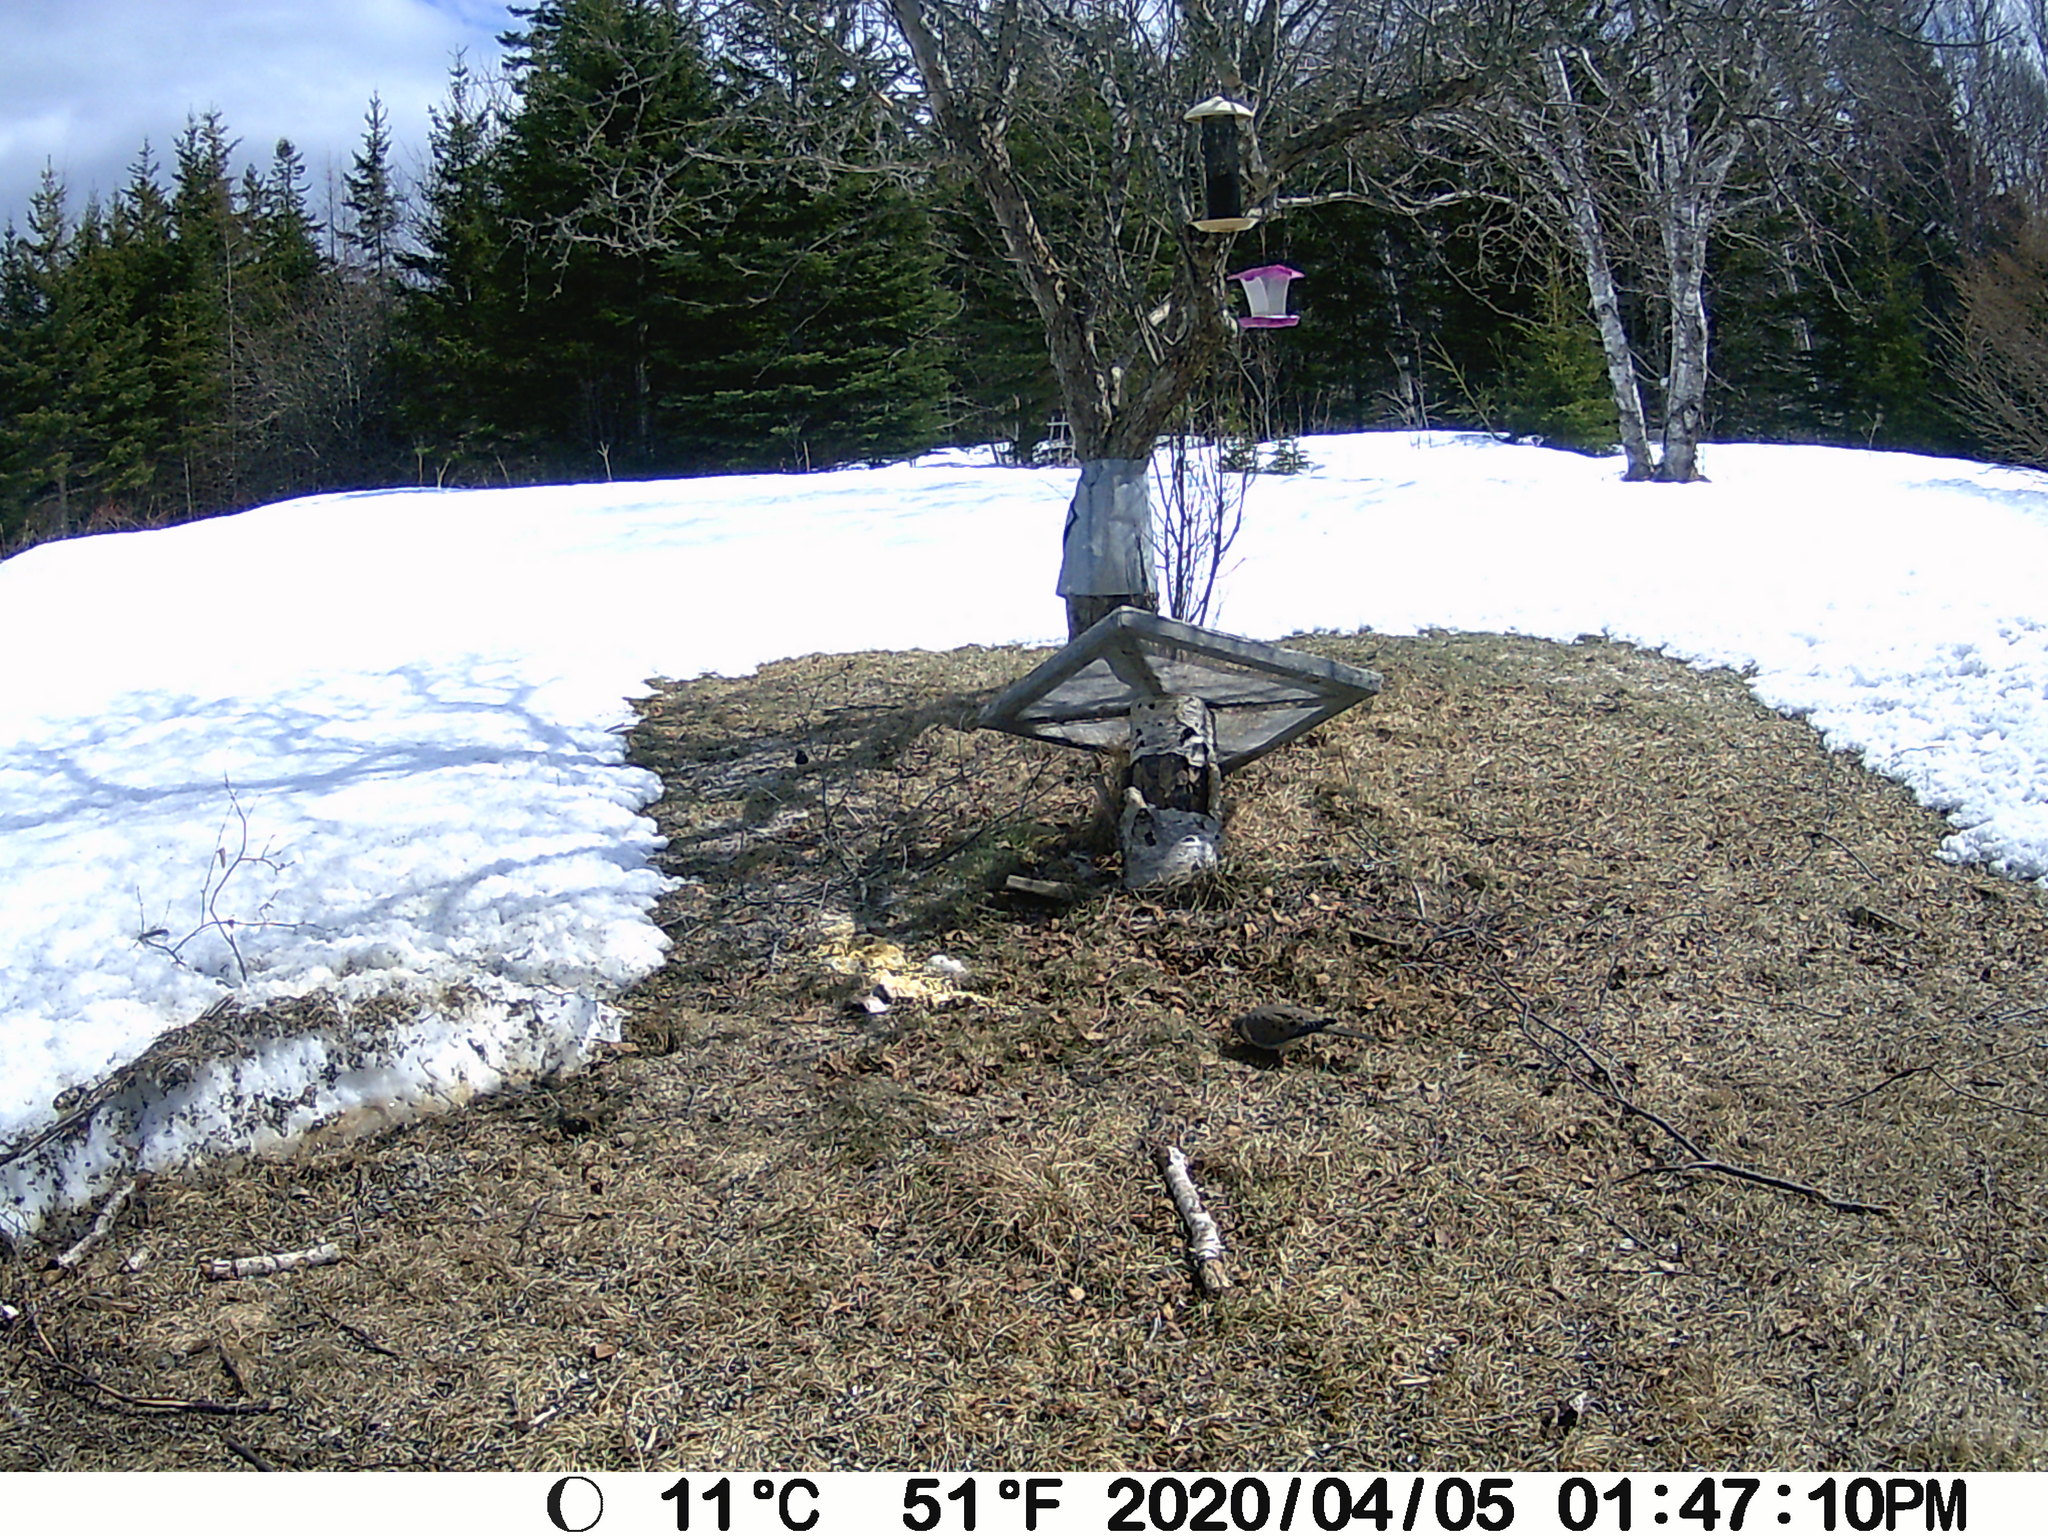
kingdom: Animalia
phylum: Chordata
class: Aves
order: Columbiformes
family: Columbidae
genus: Zenaida
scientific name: Zenaida macroura
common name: Mourning dove
